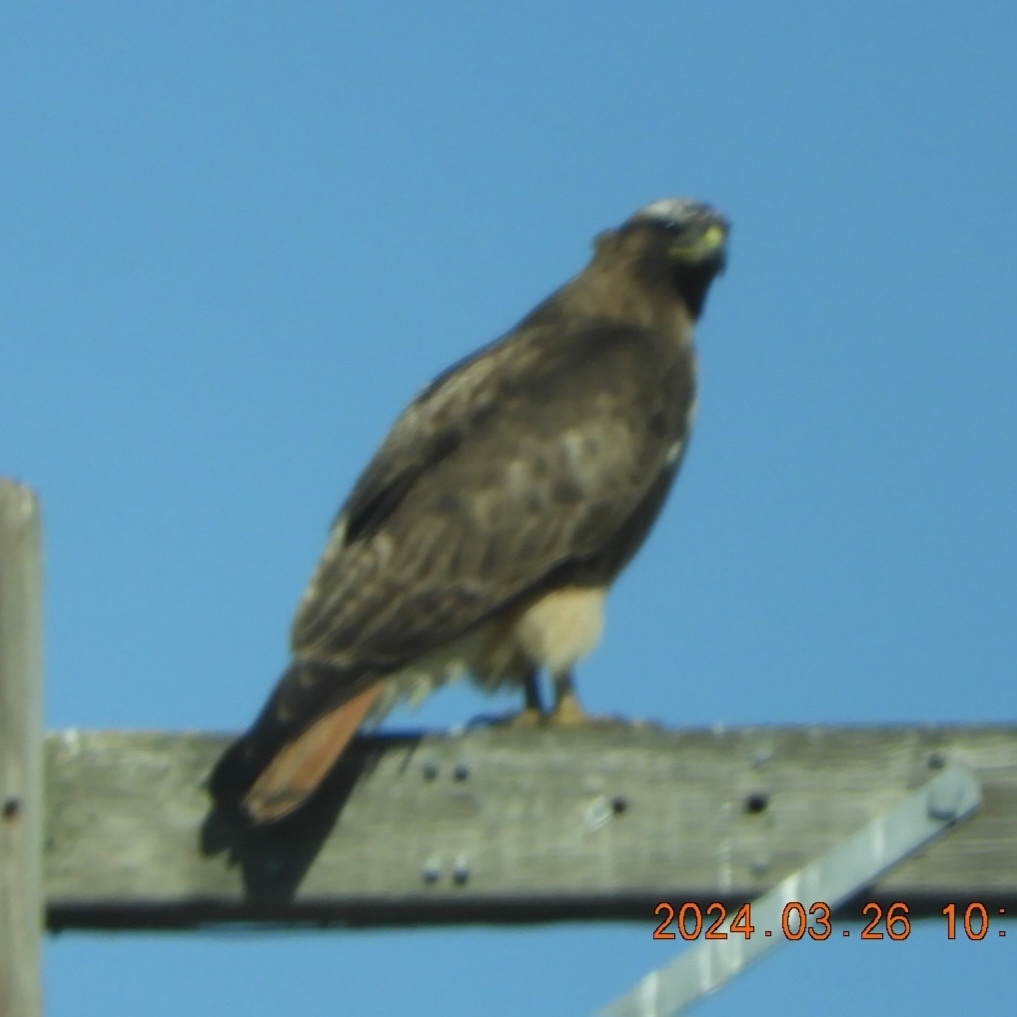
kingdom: Animalia
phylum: Chordata
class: Aves
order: Accipitriformes
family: Accipitridae
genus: Buteo
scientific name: Buteo jamaicensis
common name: Red-tailed hawk
